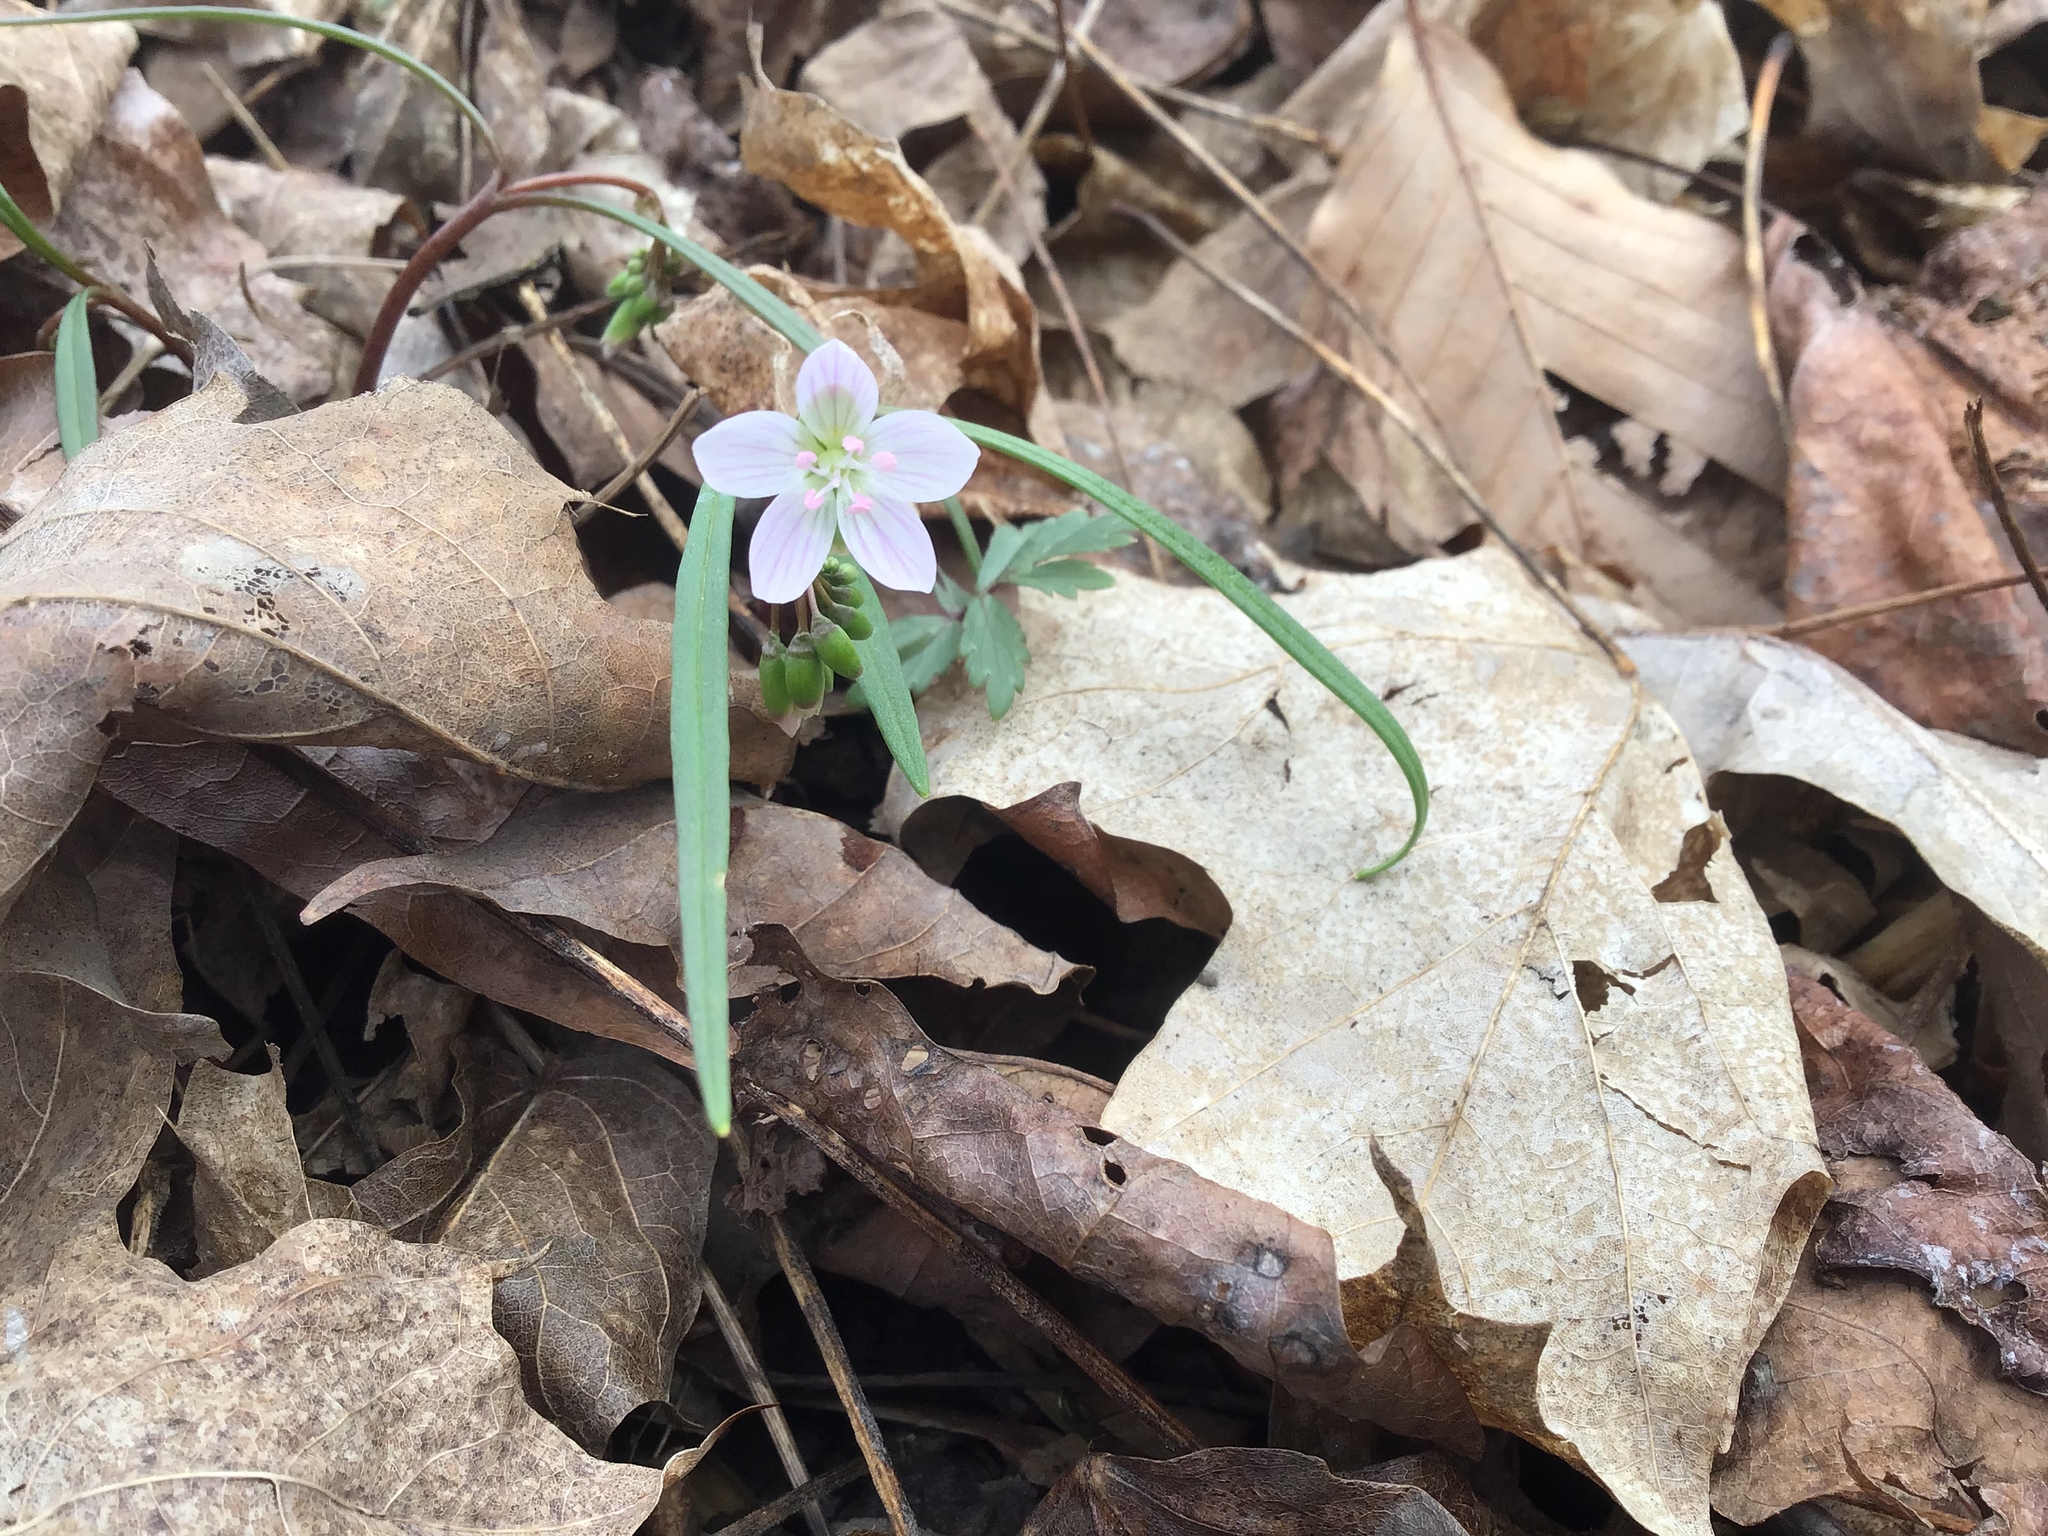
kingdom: Plantae
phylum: Tracheophyta
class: Magnoliopsida
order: Caryophyllales
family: Montiaceae
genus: Claytonia
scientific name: Claytonia virginica
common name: Virginia springbeauty
